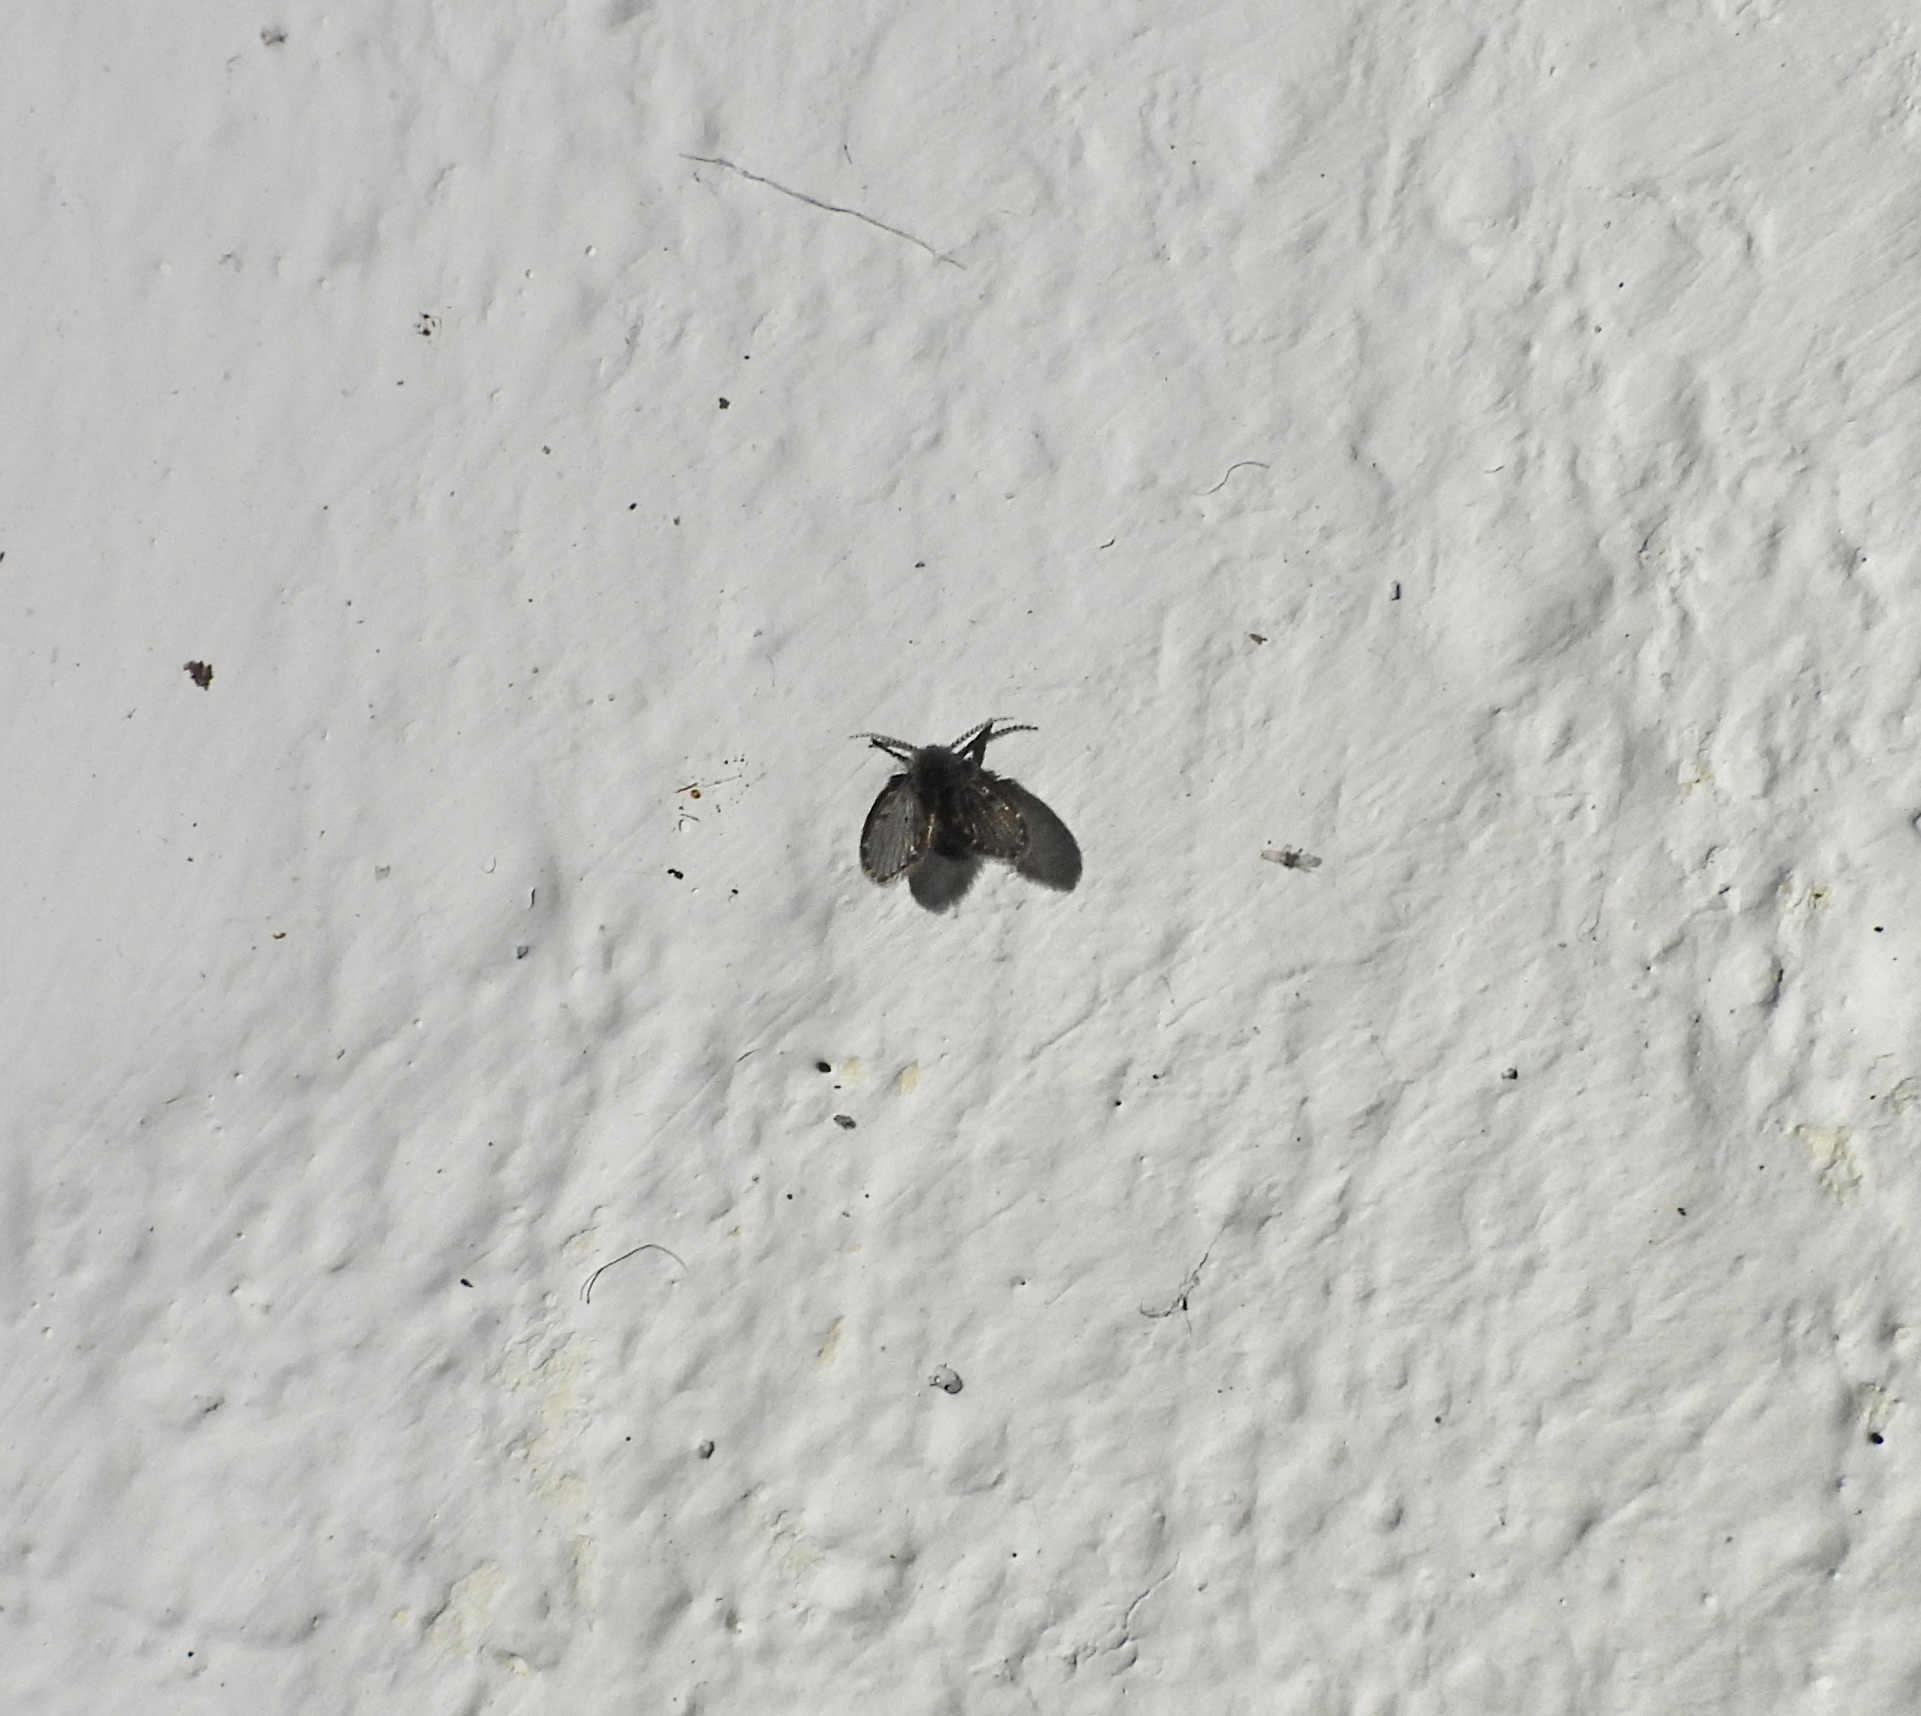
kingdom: Animalia
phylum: Arthropoda
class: Insecta
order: Diptera
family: Psychodidae
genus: Clogmia
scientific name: Clogmia albipunctatus
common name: White-spotted moth fly
